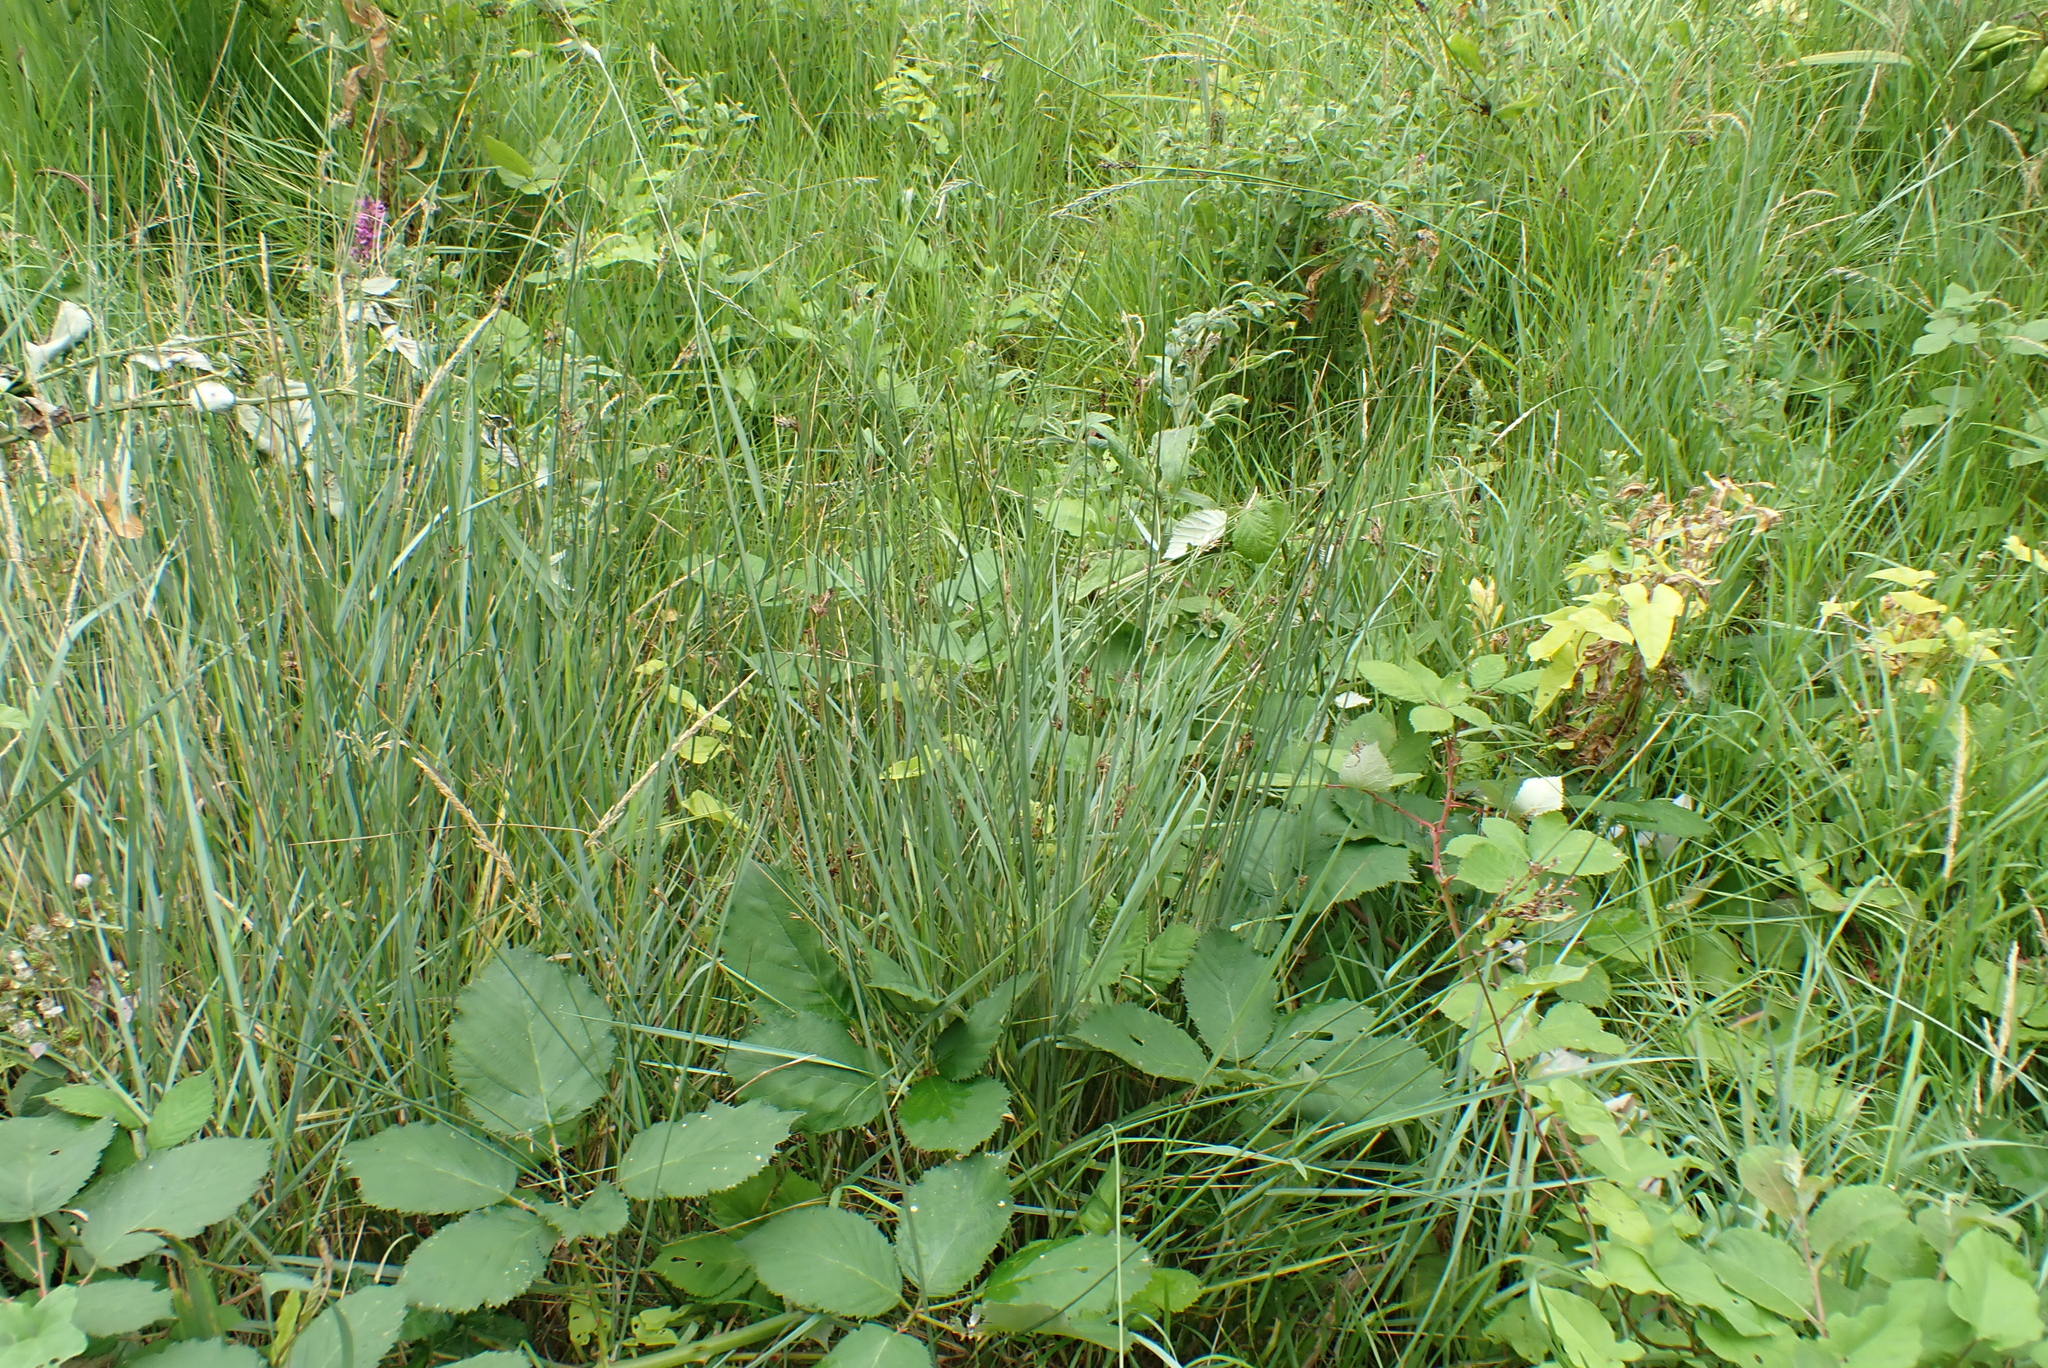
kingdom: Plantae
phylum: Tracheophyta
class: Liliopsida
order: Poales
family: Juncaceae
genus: Juncus
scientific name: Juncus inflexus
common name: Hard rush
